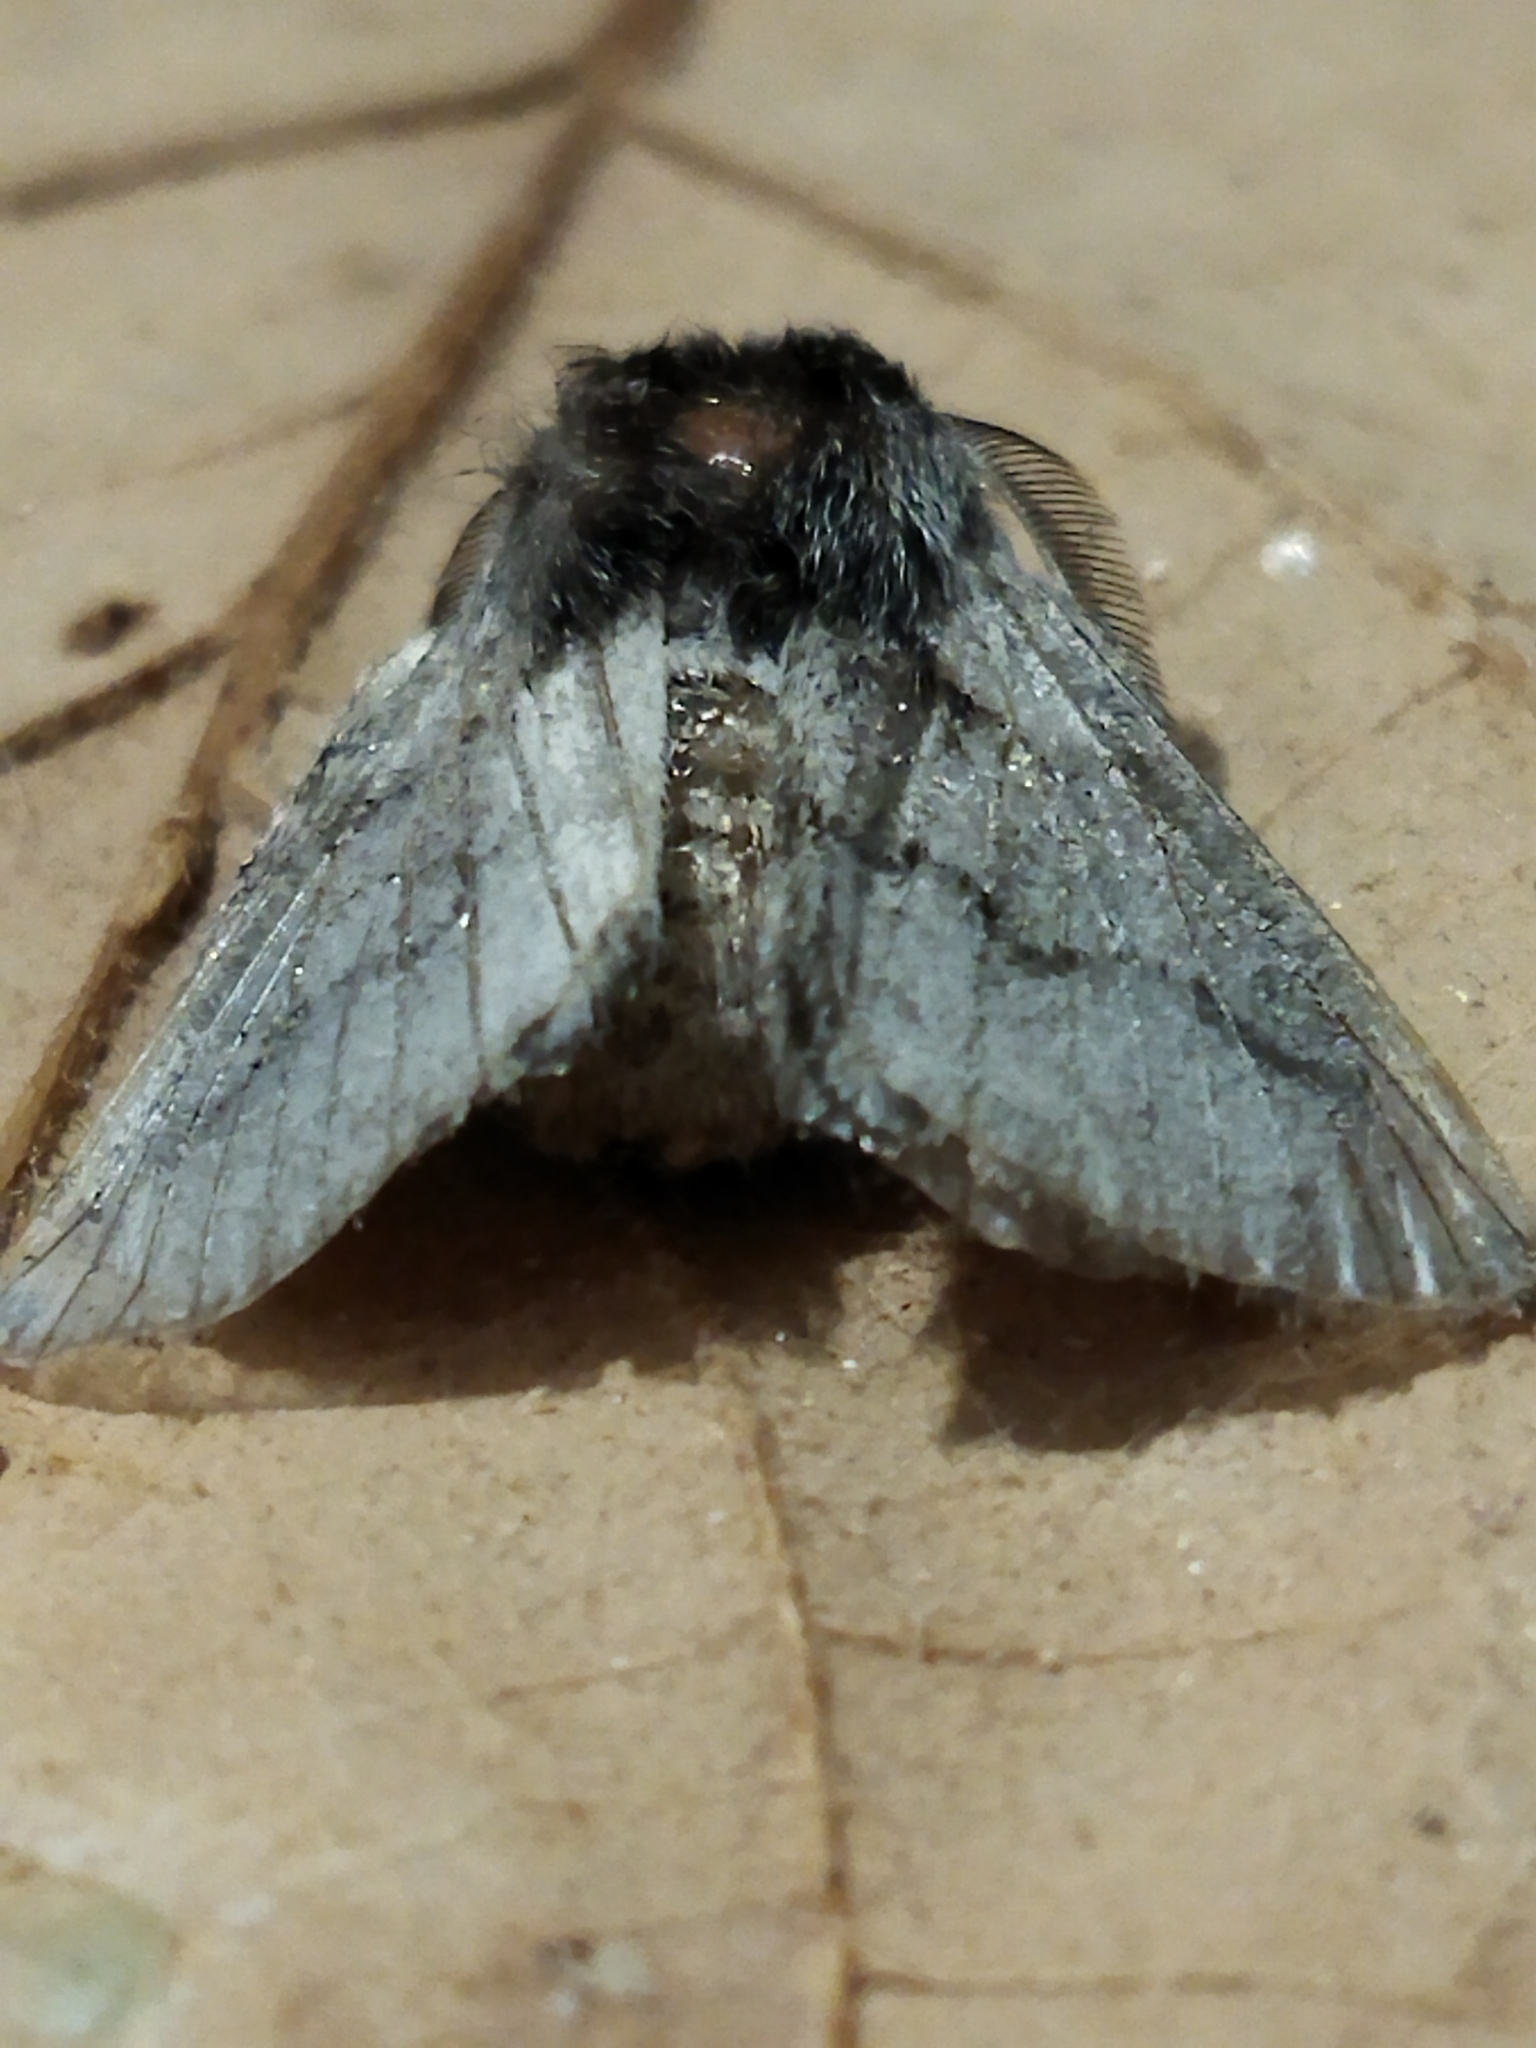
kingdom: Animalia
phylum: Arthropoda
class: Insecta
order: Lepidoptera
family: Lasiocampidae
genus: Trichiura
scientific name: Trichiura crataegi
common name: Pale eggar
